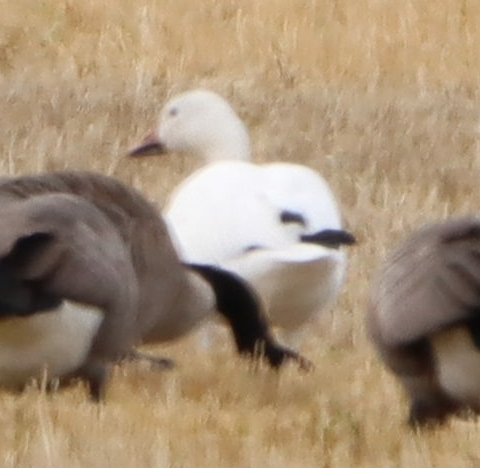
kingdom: Animalia
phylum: Chordata
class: Aves
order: Anseriformes
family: Anatidae
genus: Anser
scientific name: Anser caerulescens
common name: Snow goose
